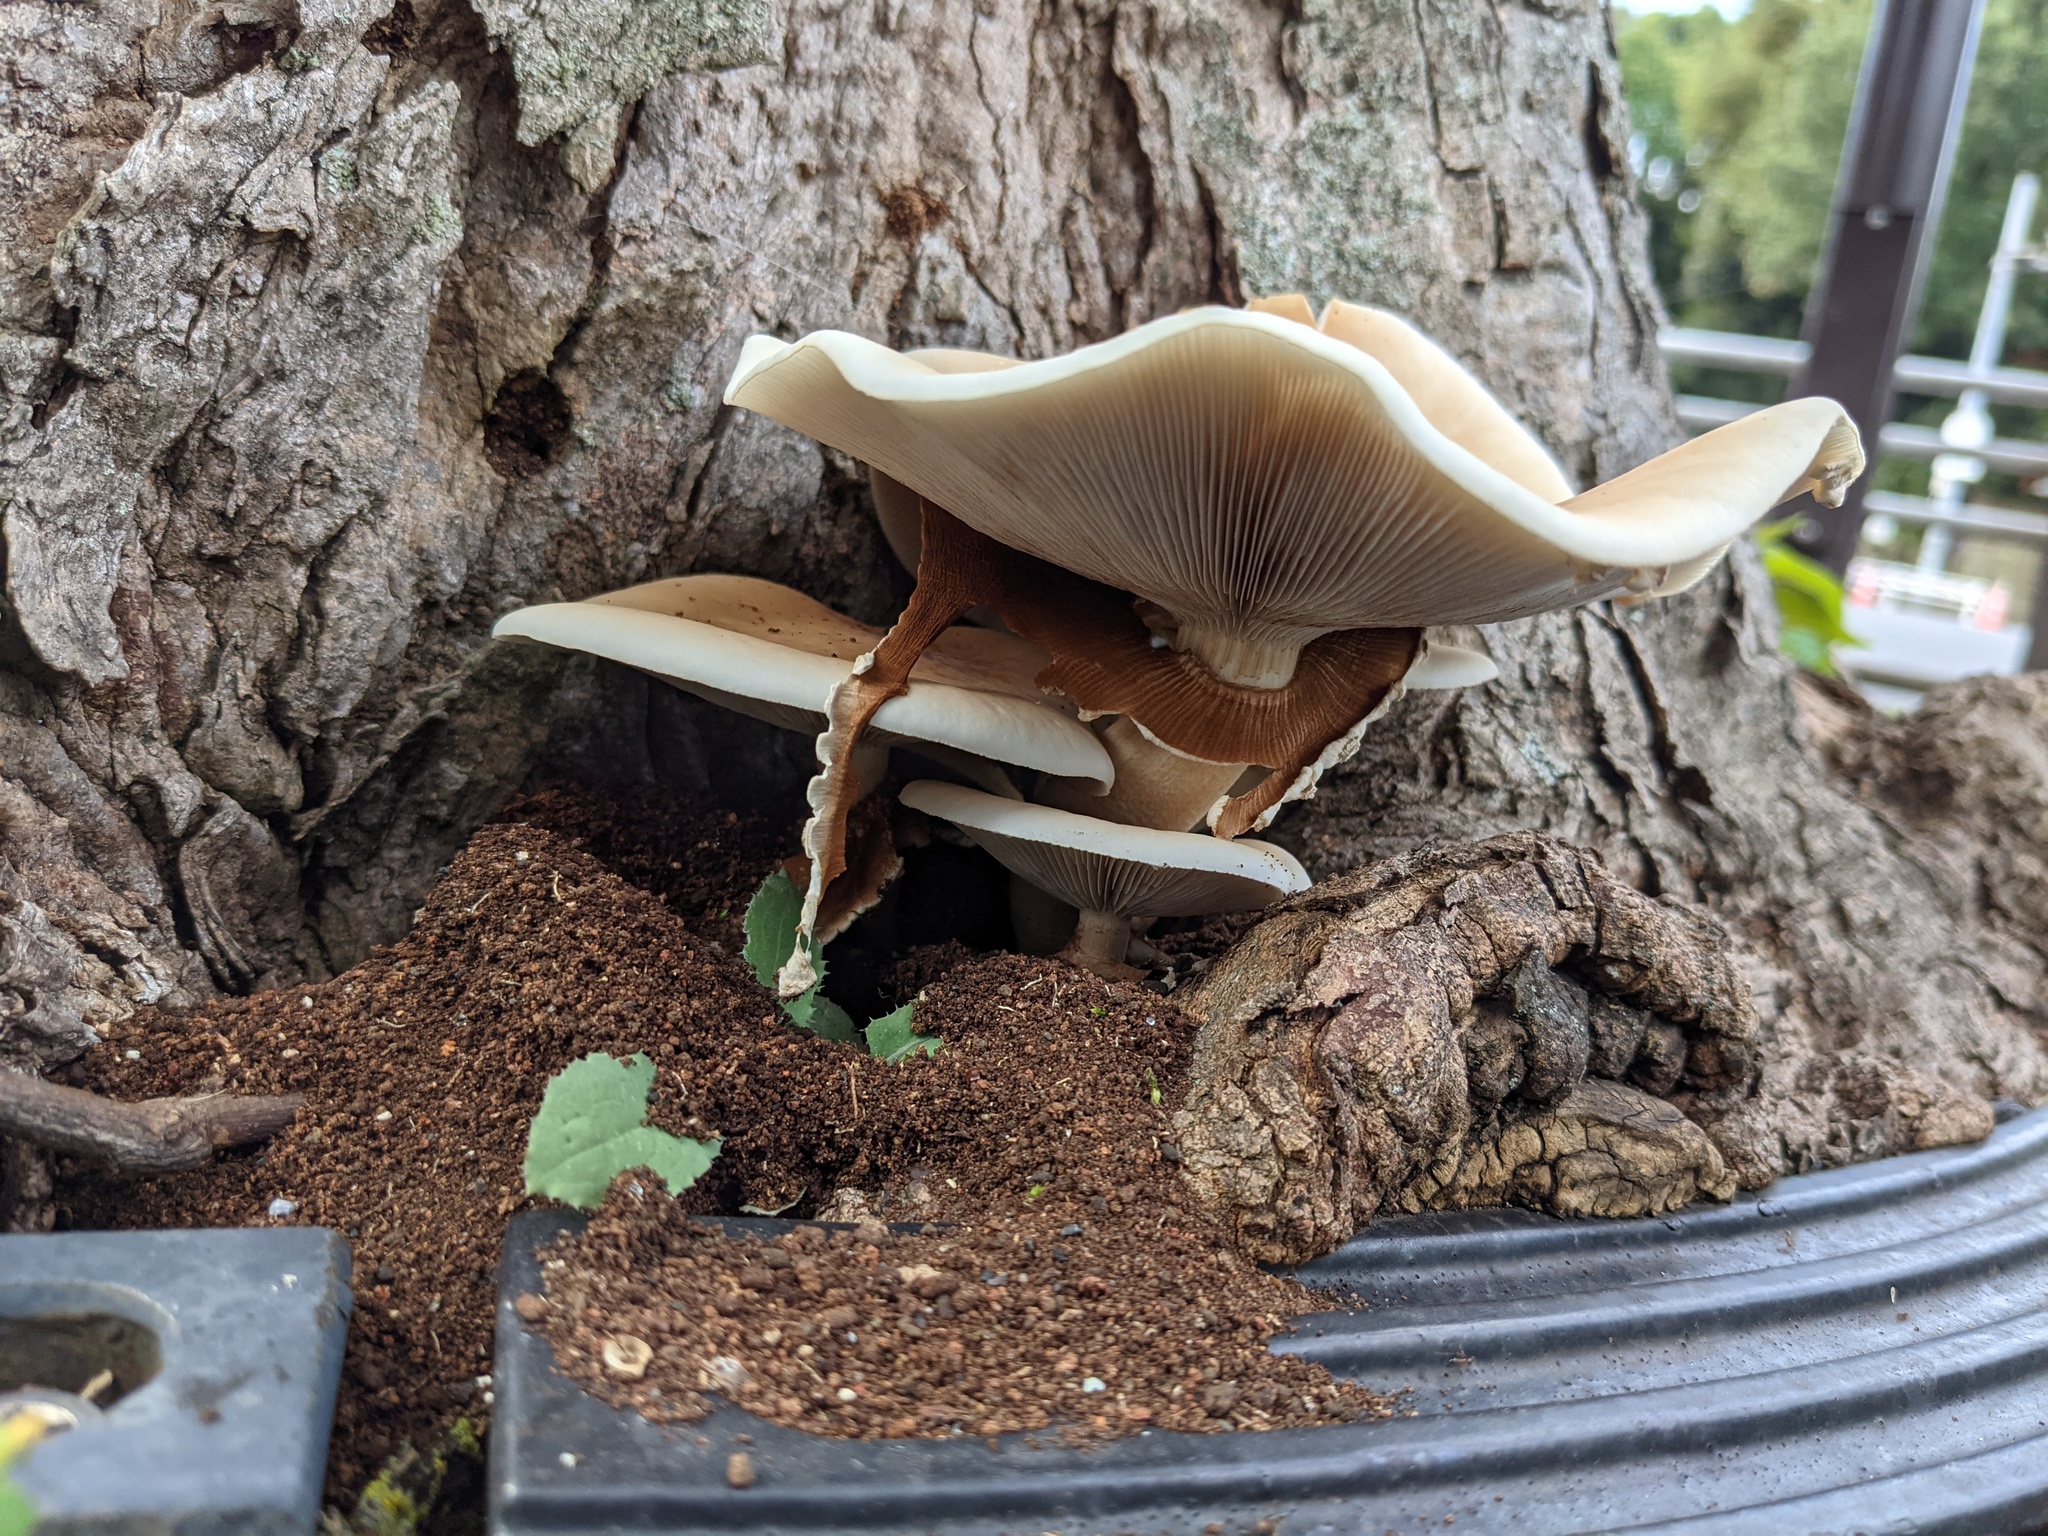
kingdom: Fungi
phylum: Basidiomycota
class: Agaricomycetes
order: Agaricales
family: Tubariaceae
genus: Cyclocybe
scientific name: Cyclocybe cylindracea
